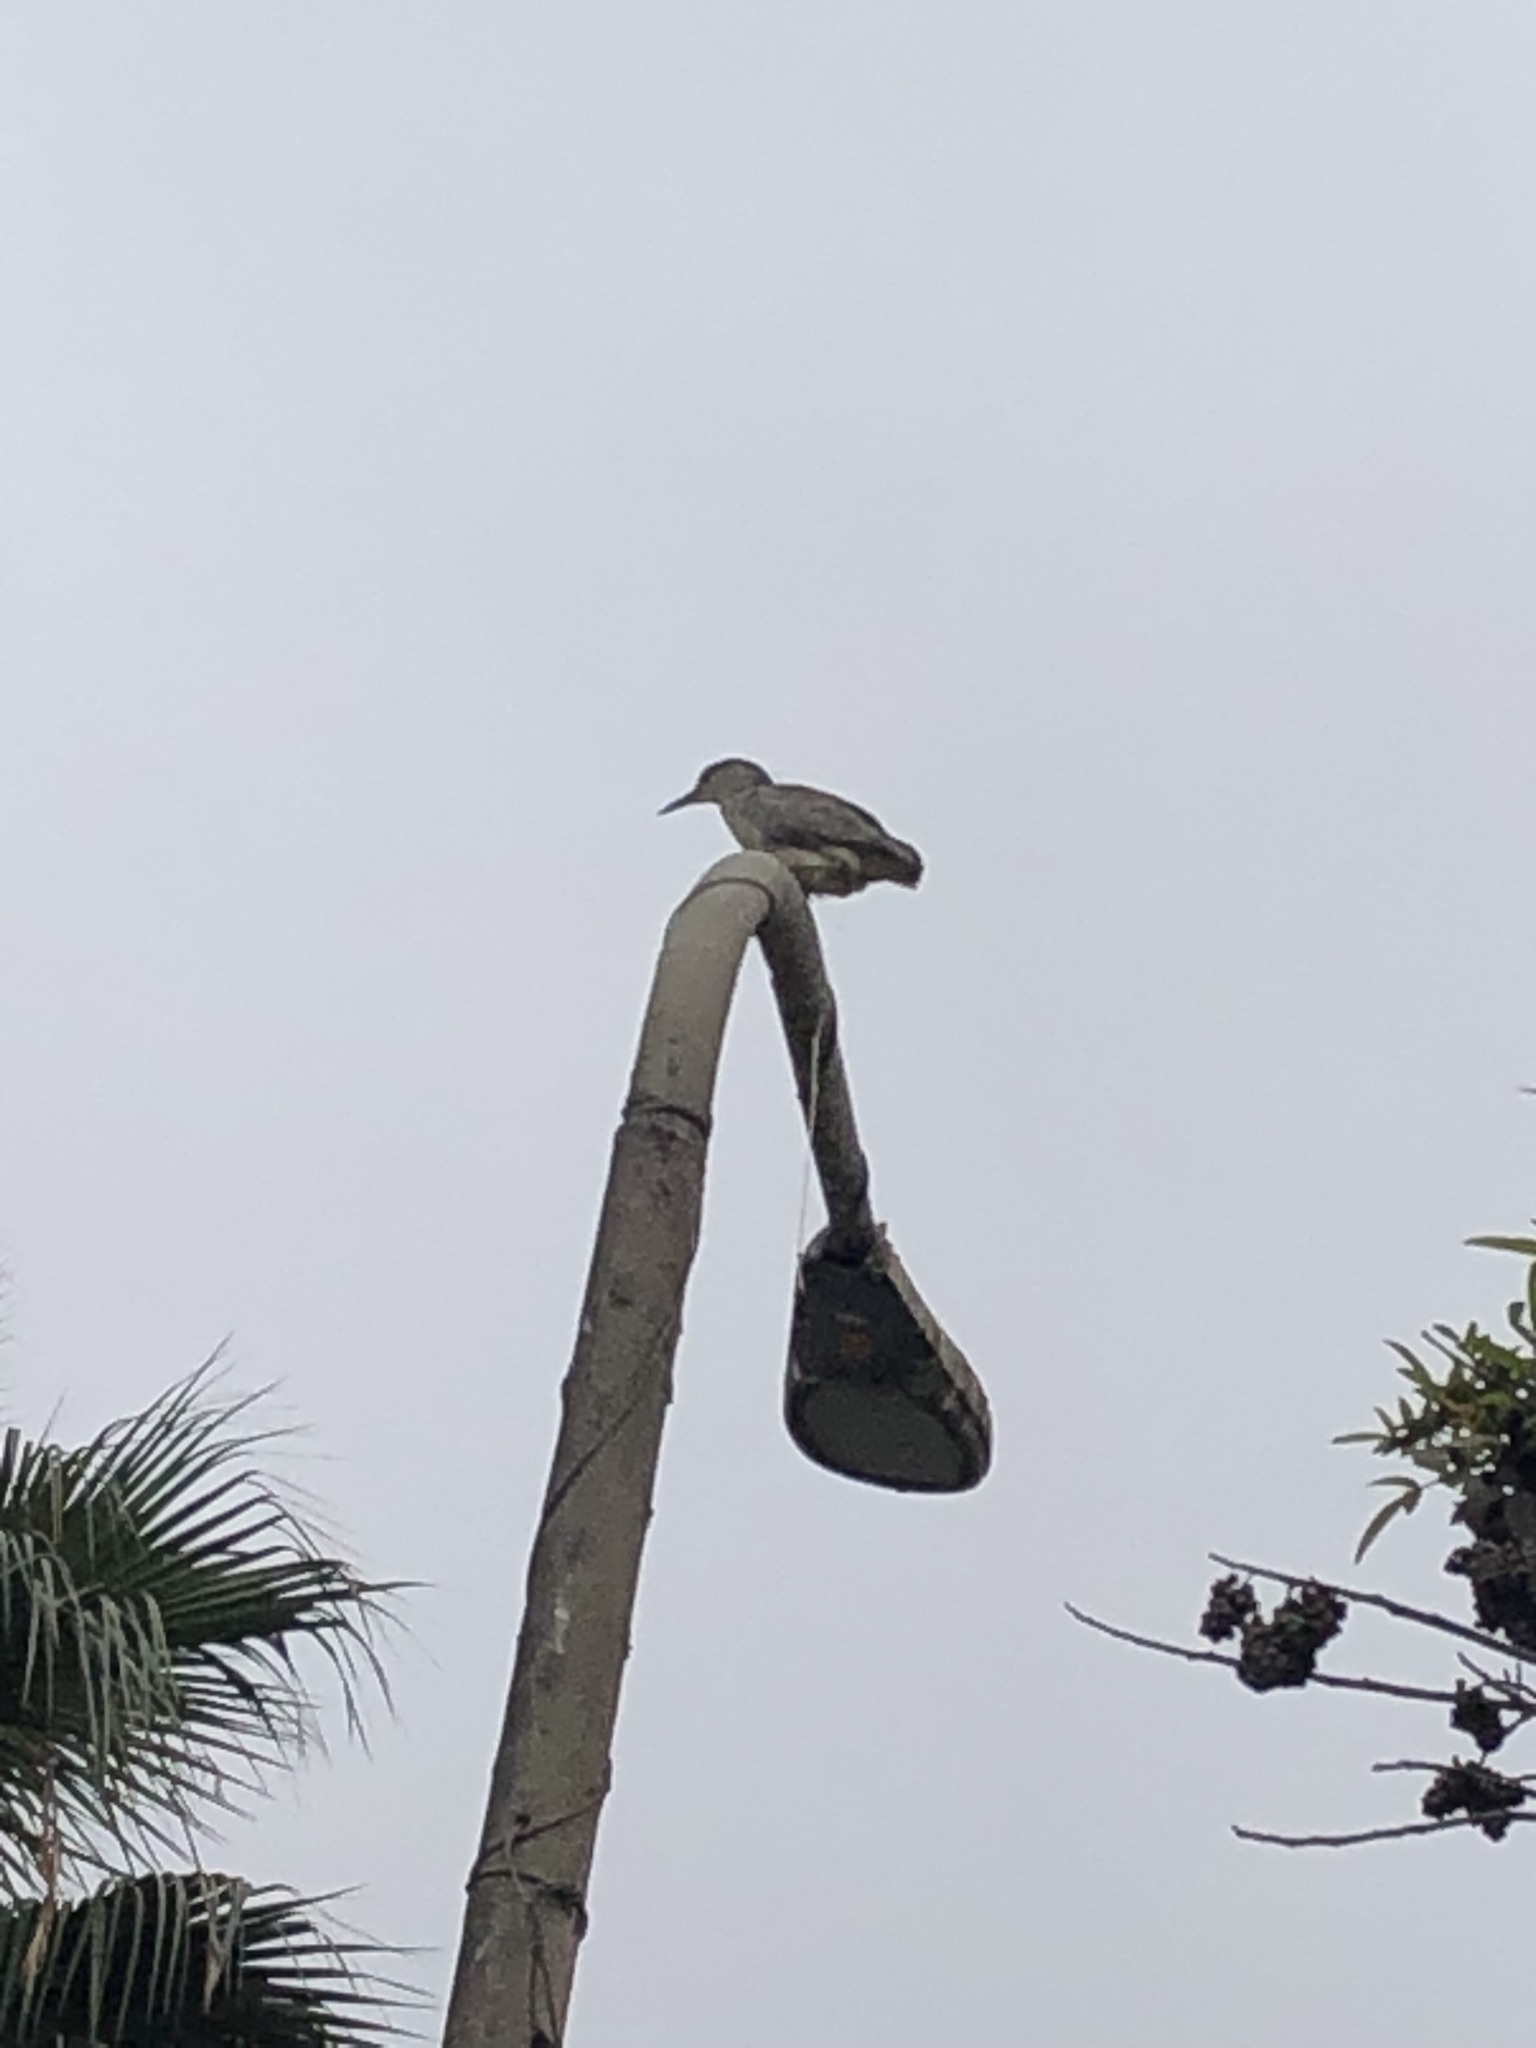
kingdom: Animalia
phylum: Chordata
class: Aves
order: Pelecaniformes
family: Ardeidae
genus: Nycticorax
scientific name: Nycticorax nycticorax
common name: Black-crowned night heron
